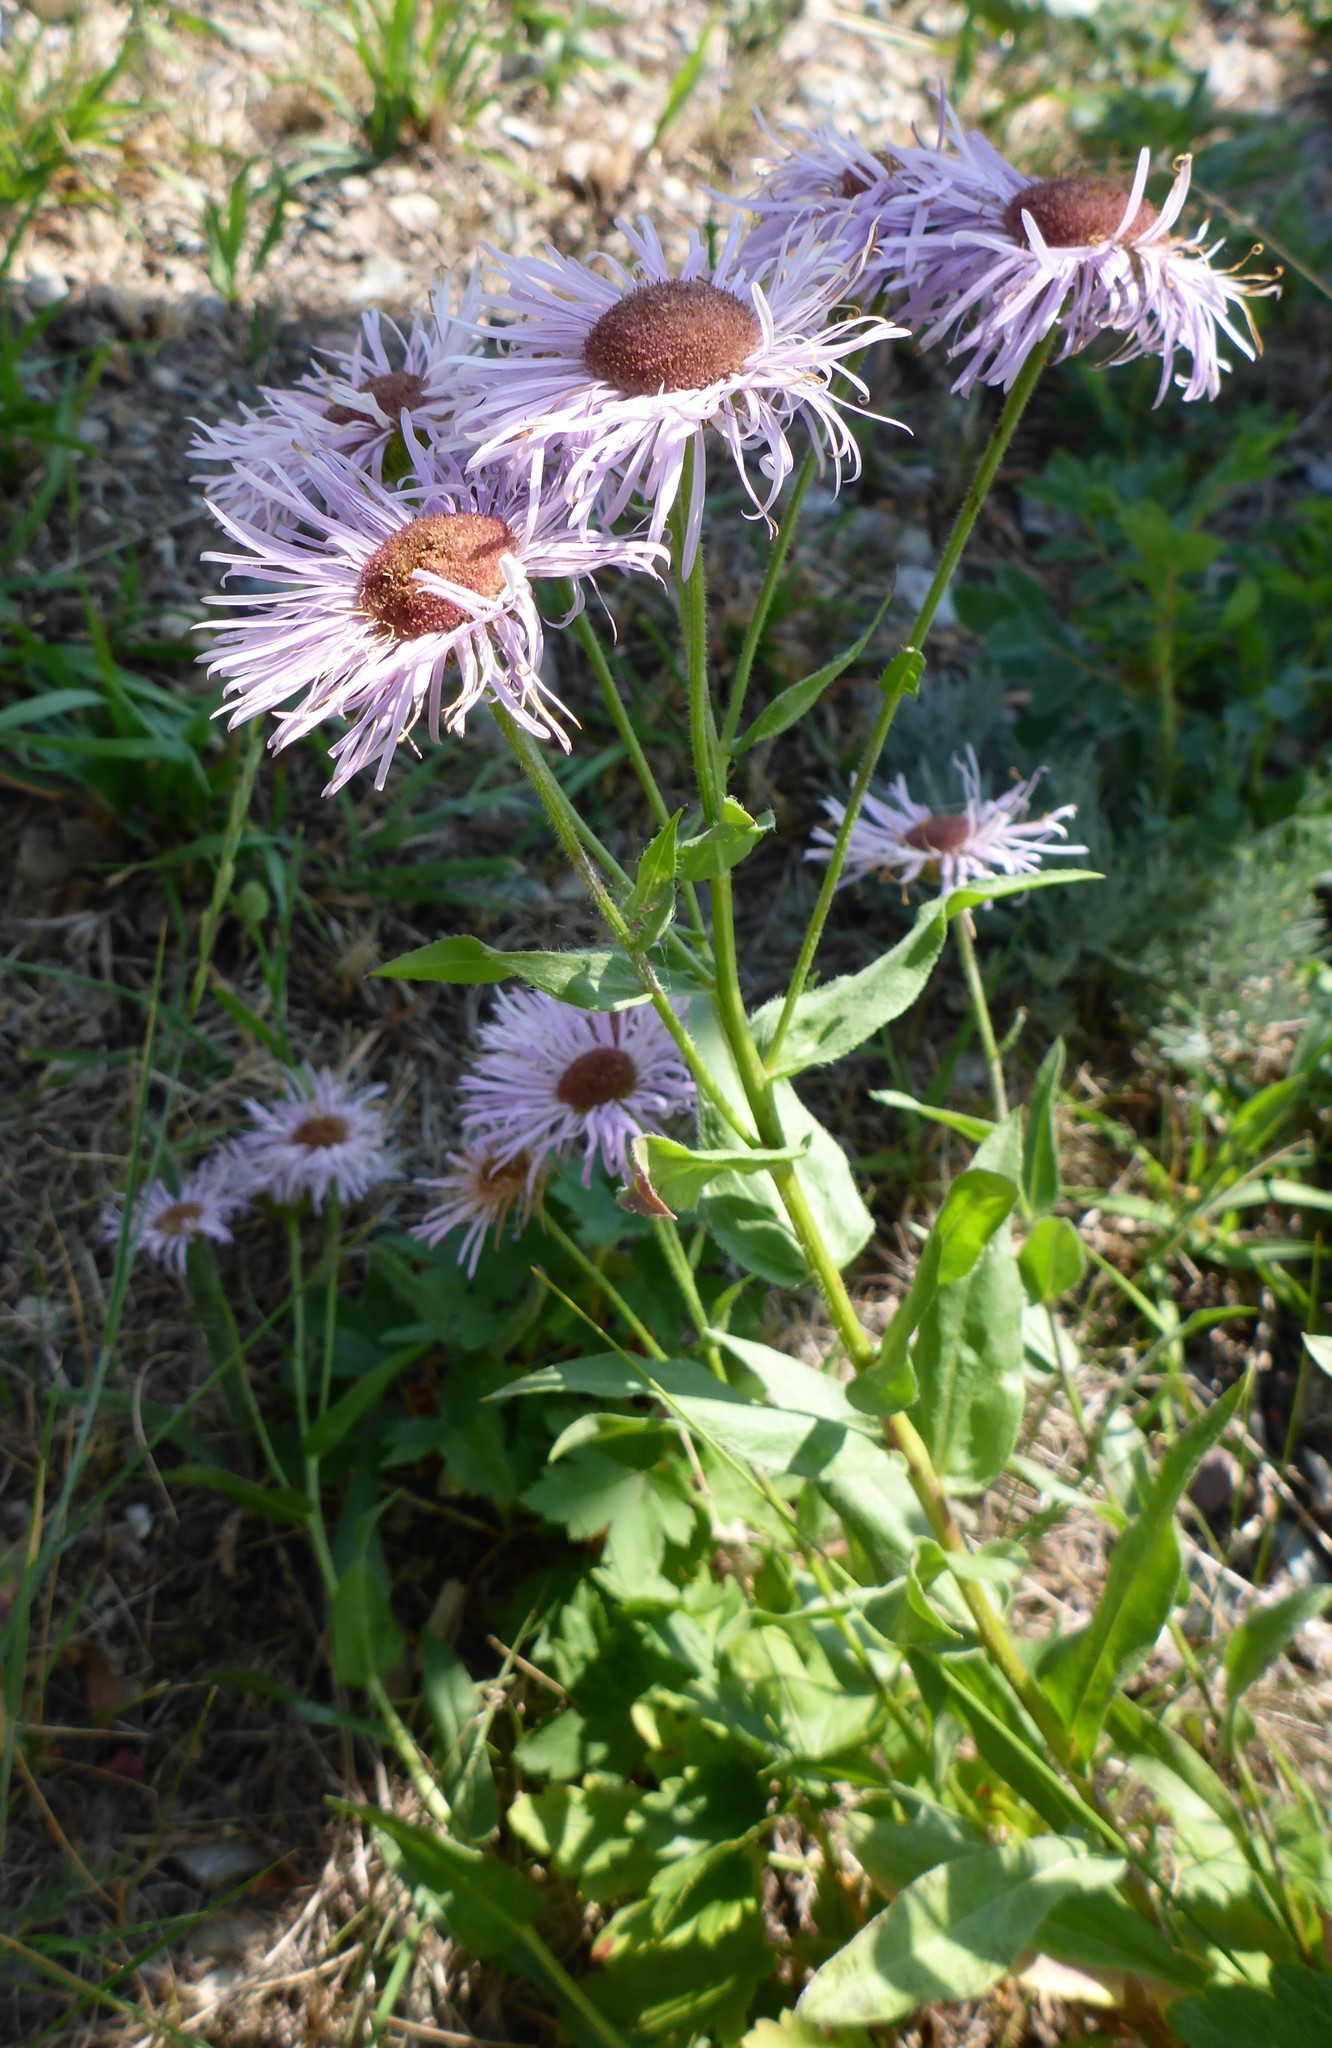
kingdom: Plantae
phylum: Tracheophyta
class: Magnoliopsida
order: Asterales
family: Asteraceae
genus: Erigeron
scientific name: Erigeron speciosus
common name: Aspen fleabane
